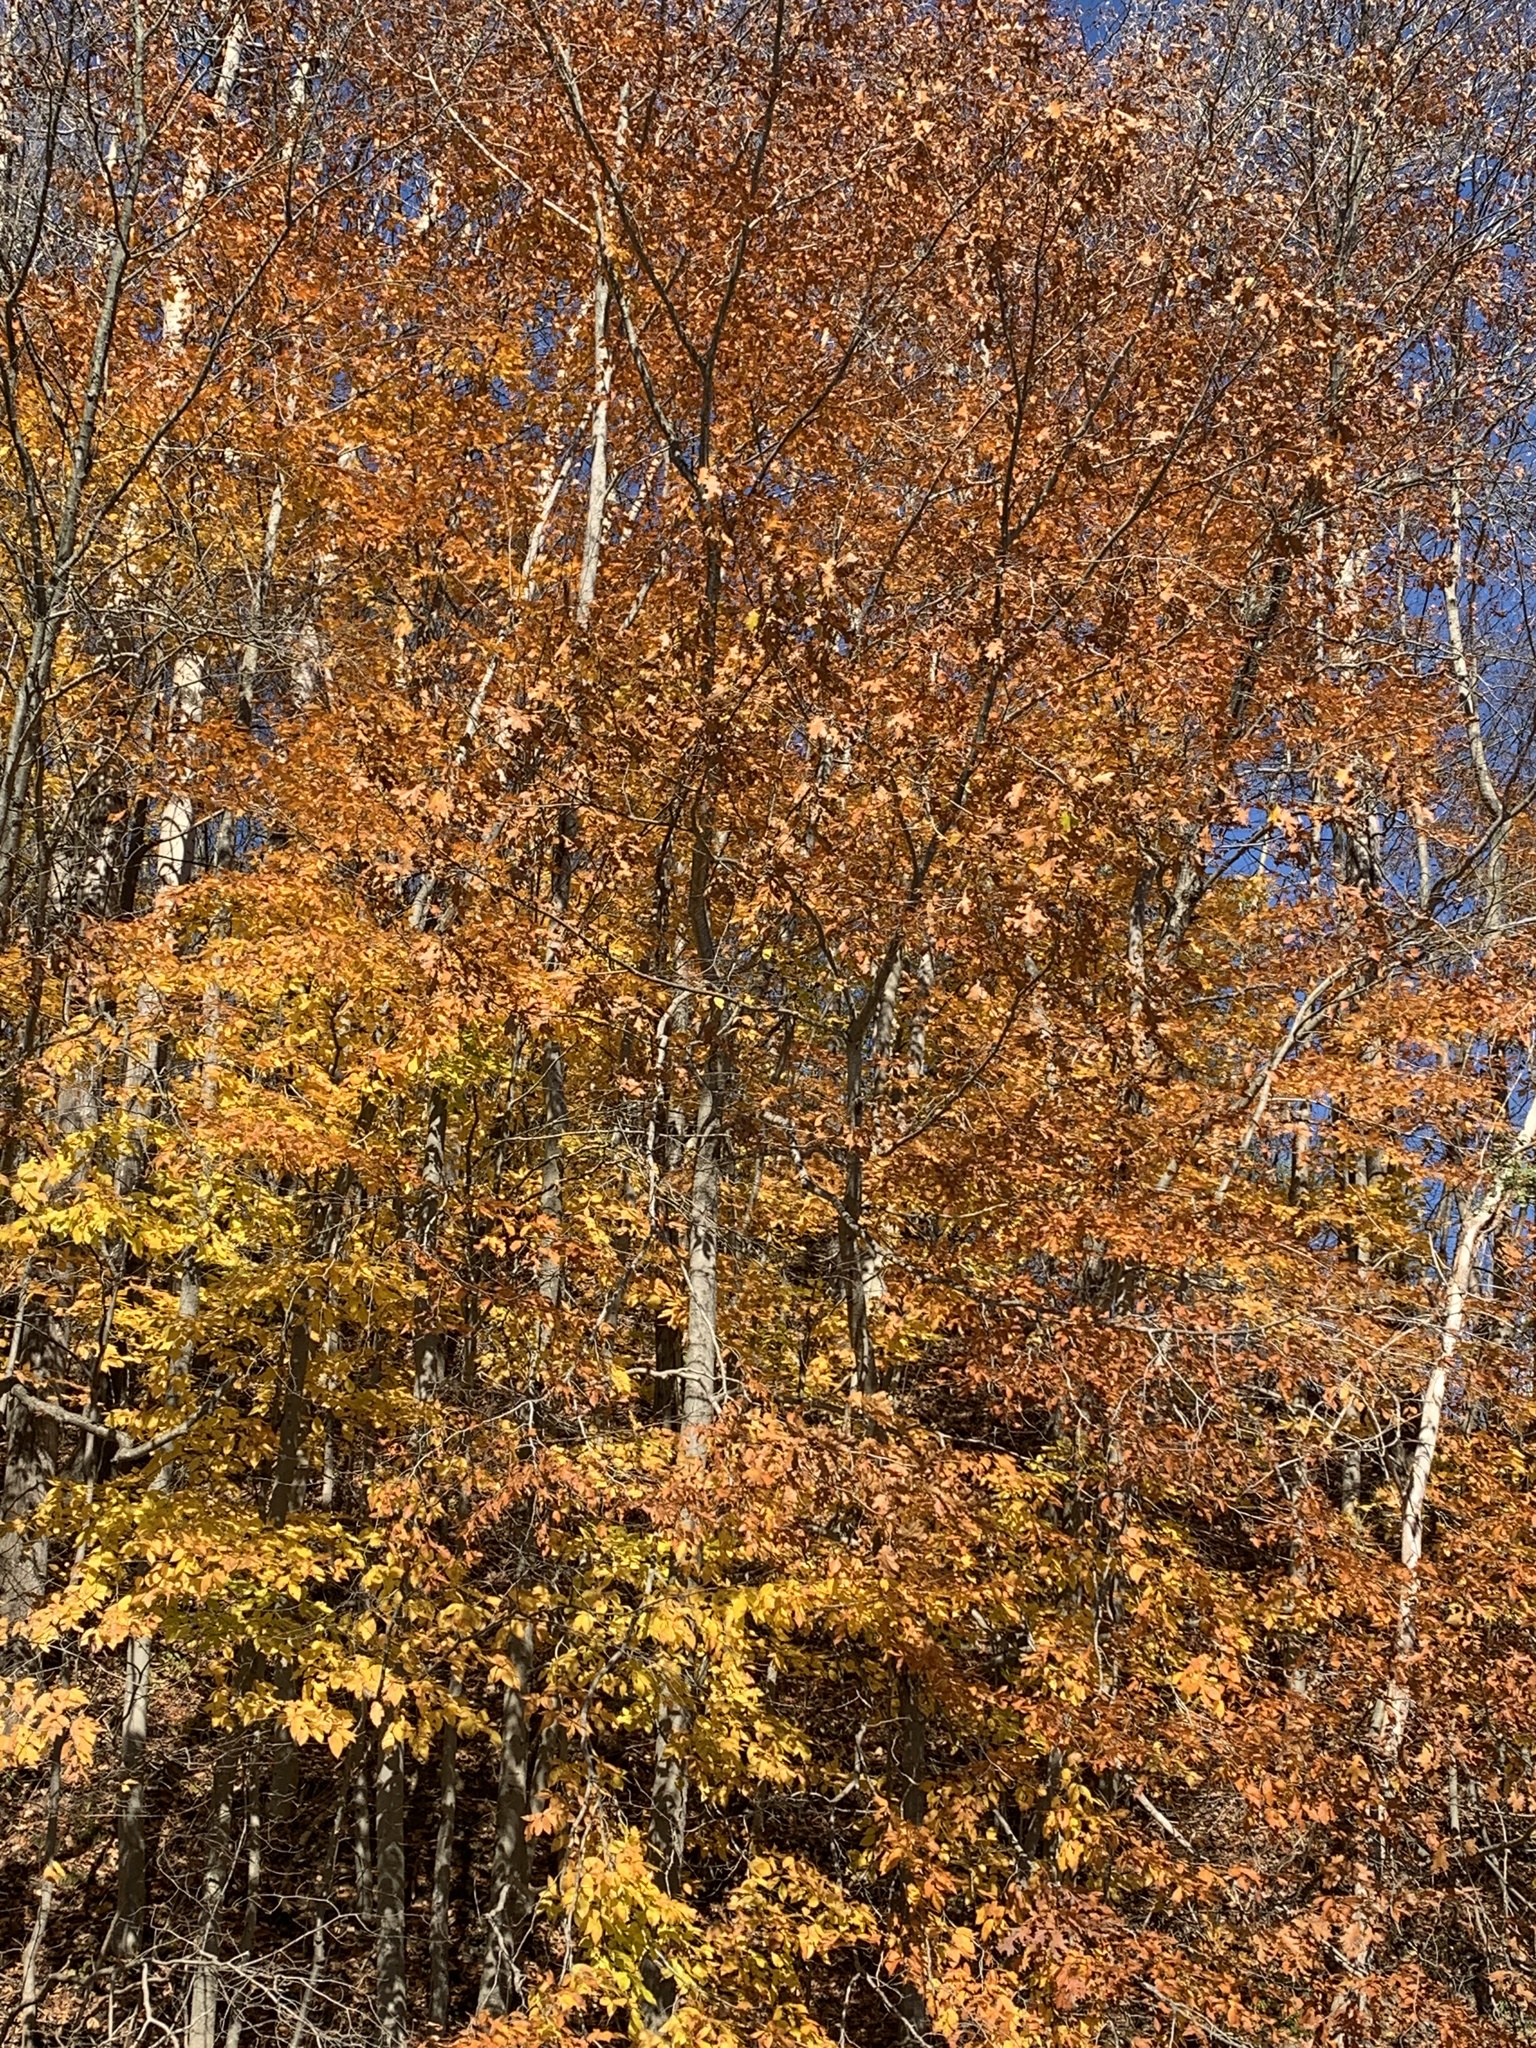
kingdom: Plantae
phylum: Tracheophyta
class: Magnoliopsida
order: Fagales
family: Fagaceae
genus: Quercus
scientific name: Quercus rubra
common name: Red oak
